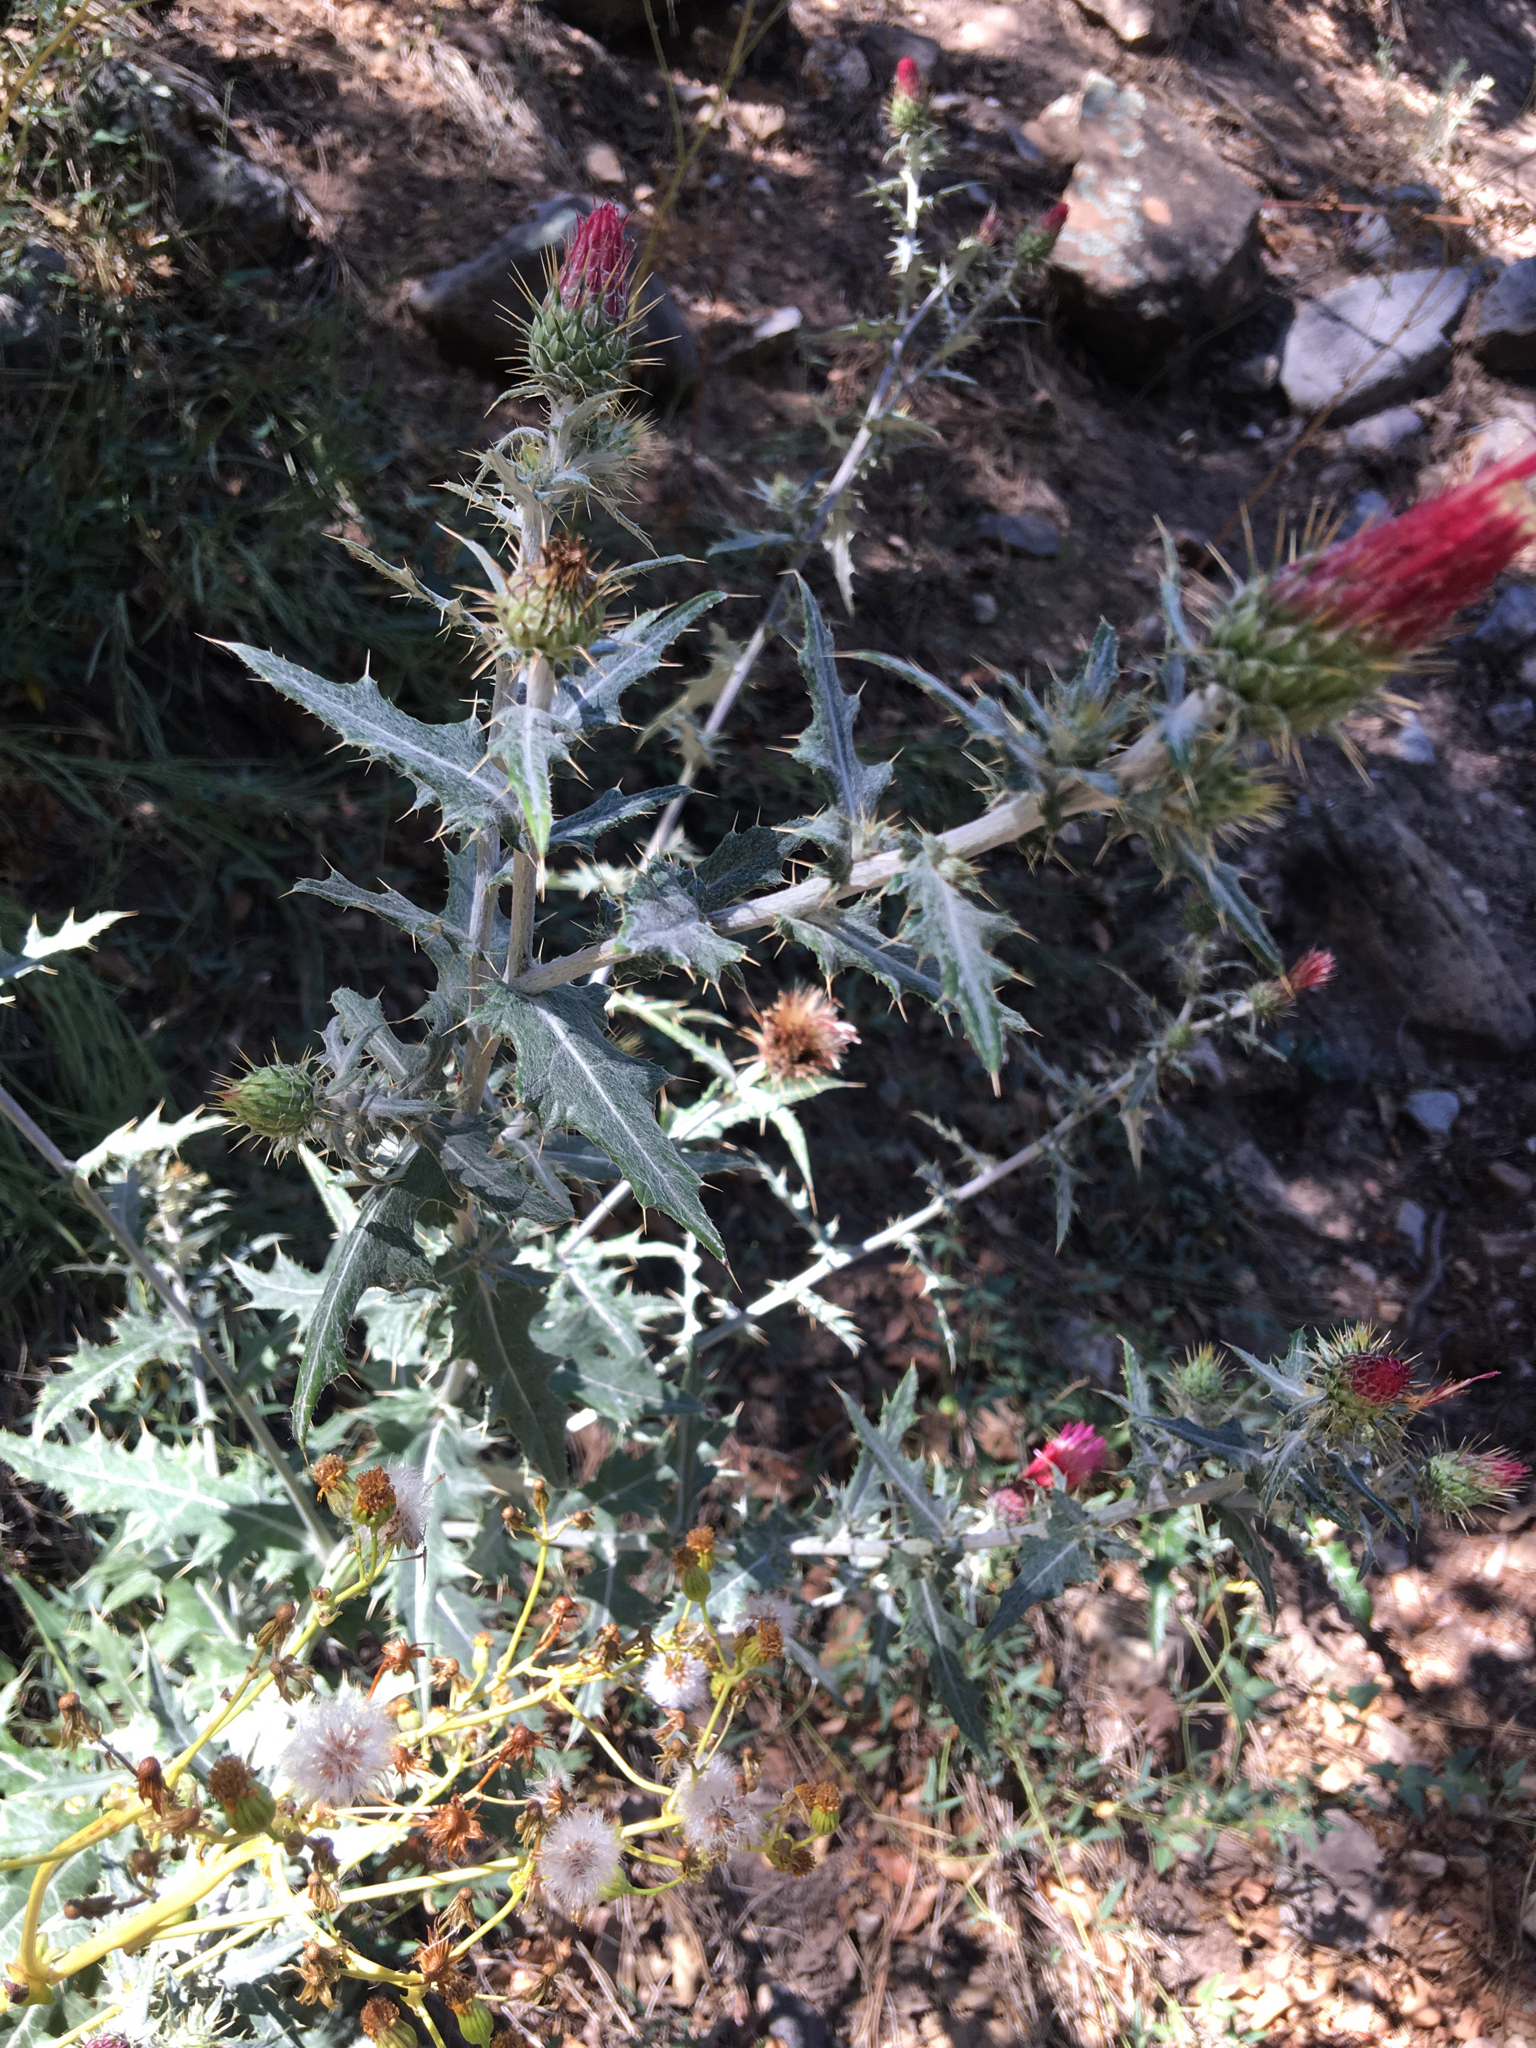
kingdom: Plantae
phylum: Tracheophyta
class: Magnoliopsida
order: Asterales
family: Asteraceae
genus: Cirsium
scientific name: Cirsium arizonicum
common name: Arizona thistle
